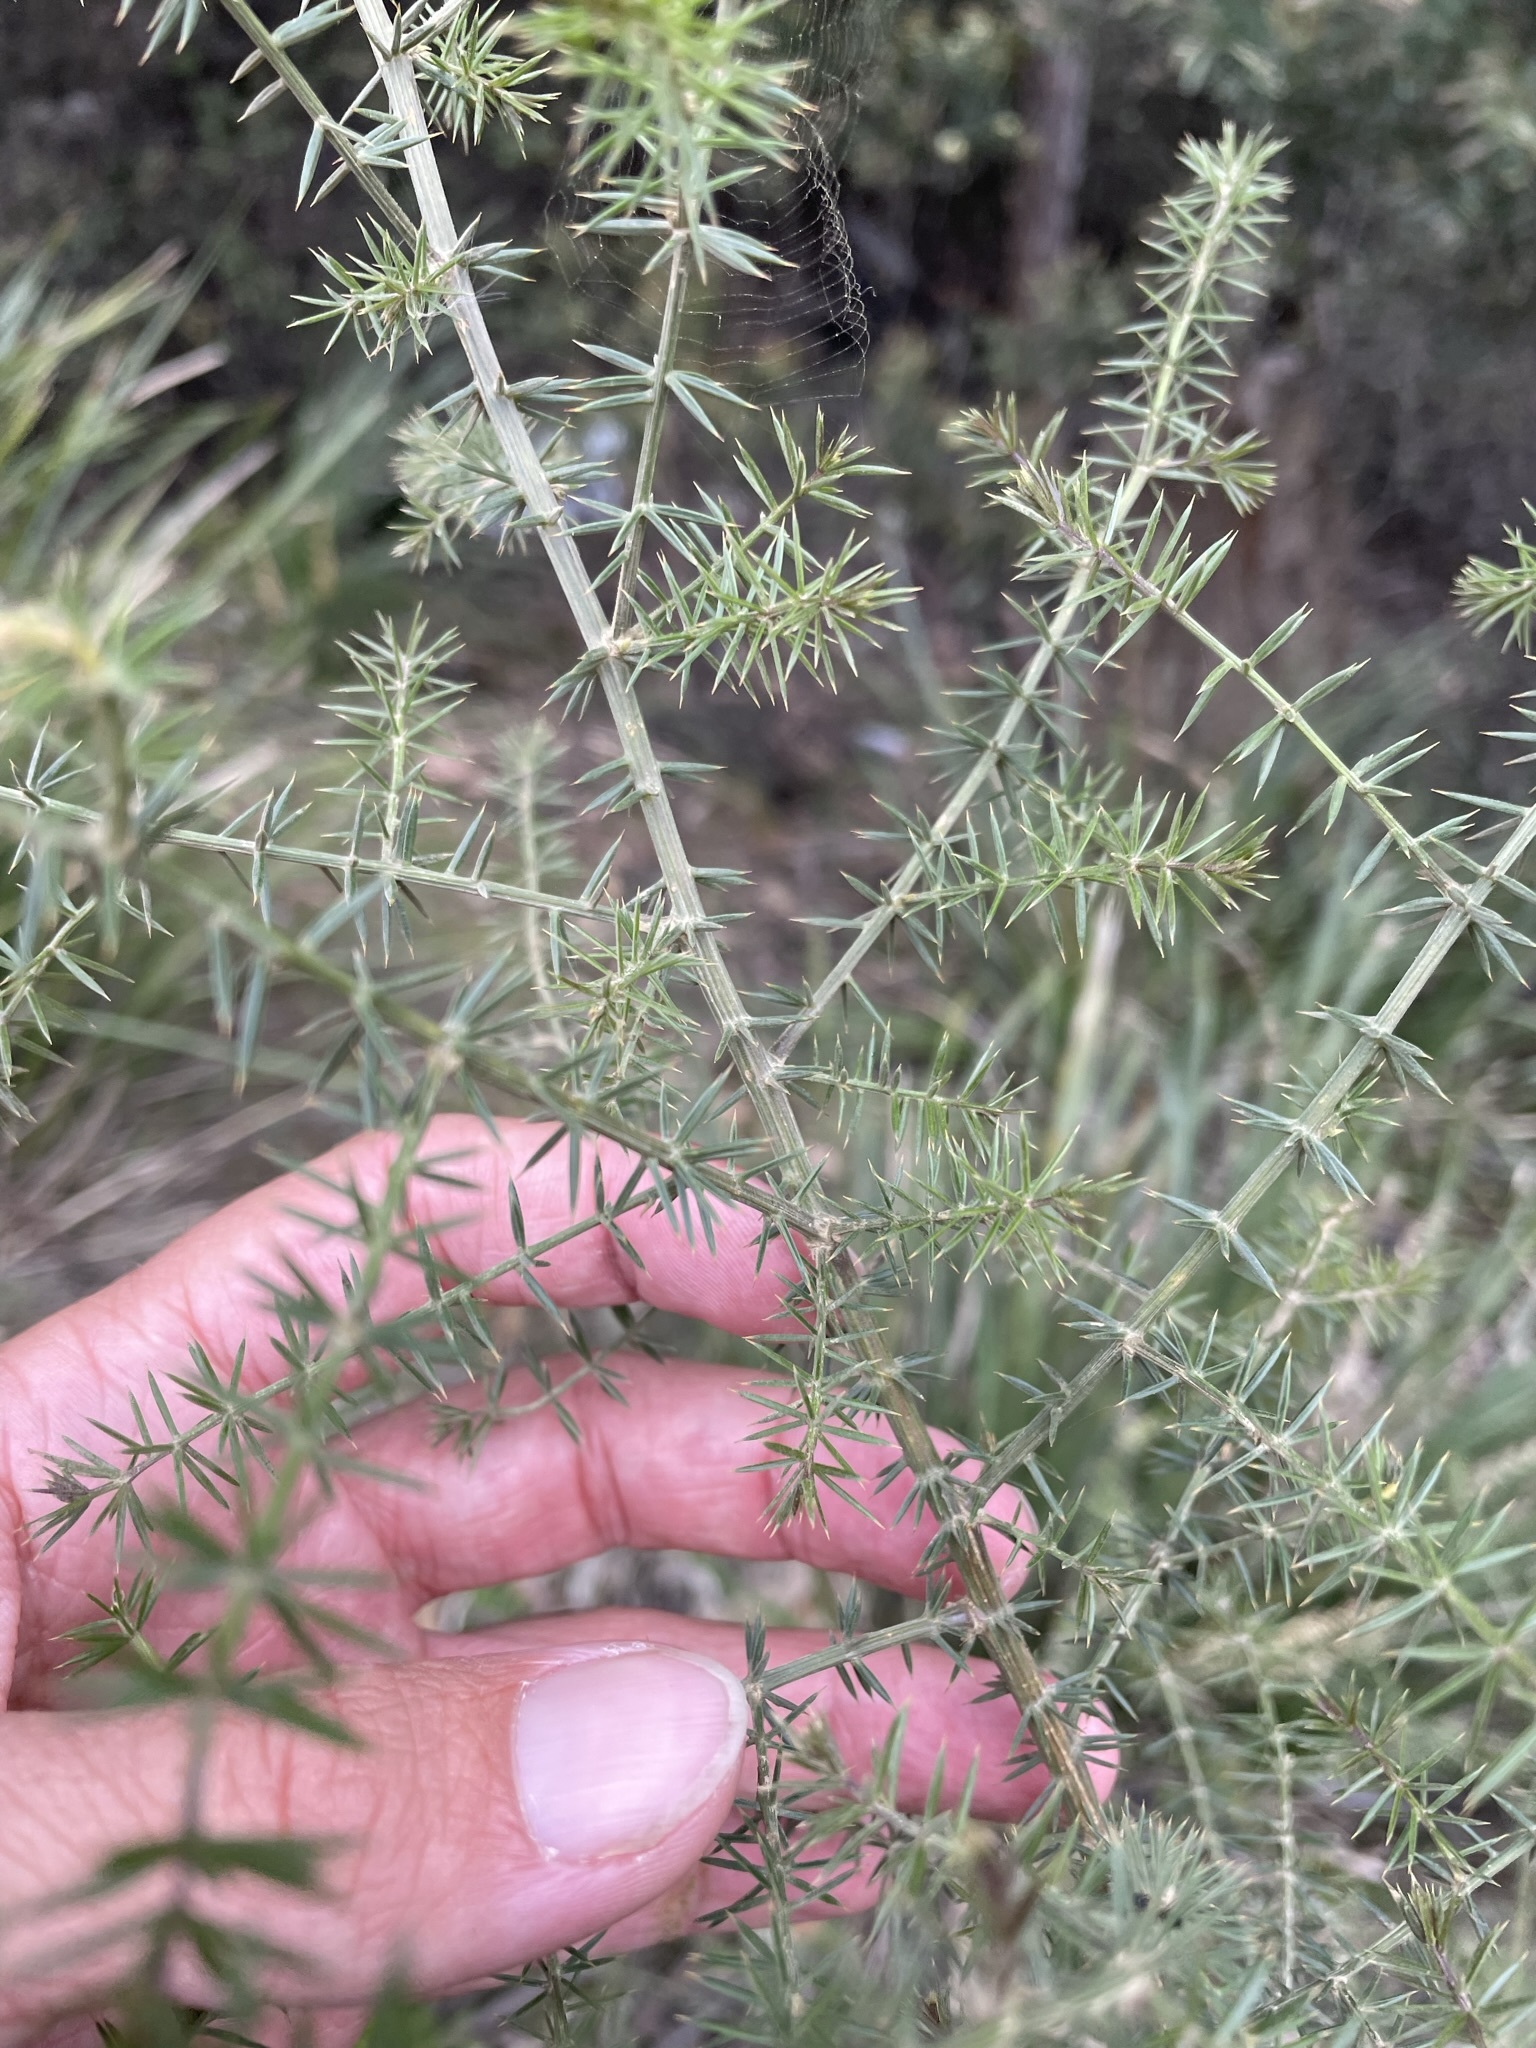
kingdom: Plantae
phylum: Tracheophyta
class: Magnoliopsida
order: Fabales
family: Fabaceae
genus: Acacia
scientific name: Acacia verticillata
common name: Prickly moses
